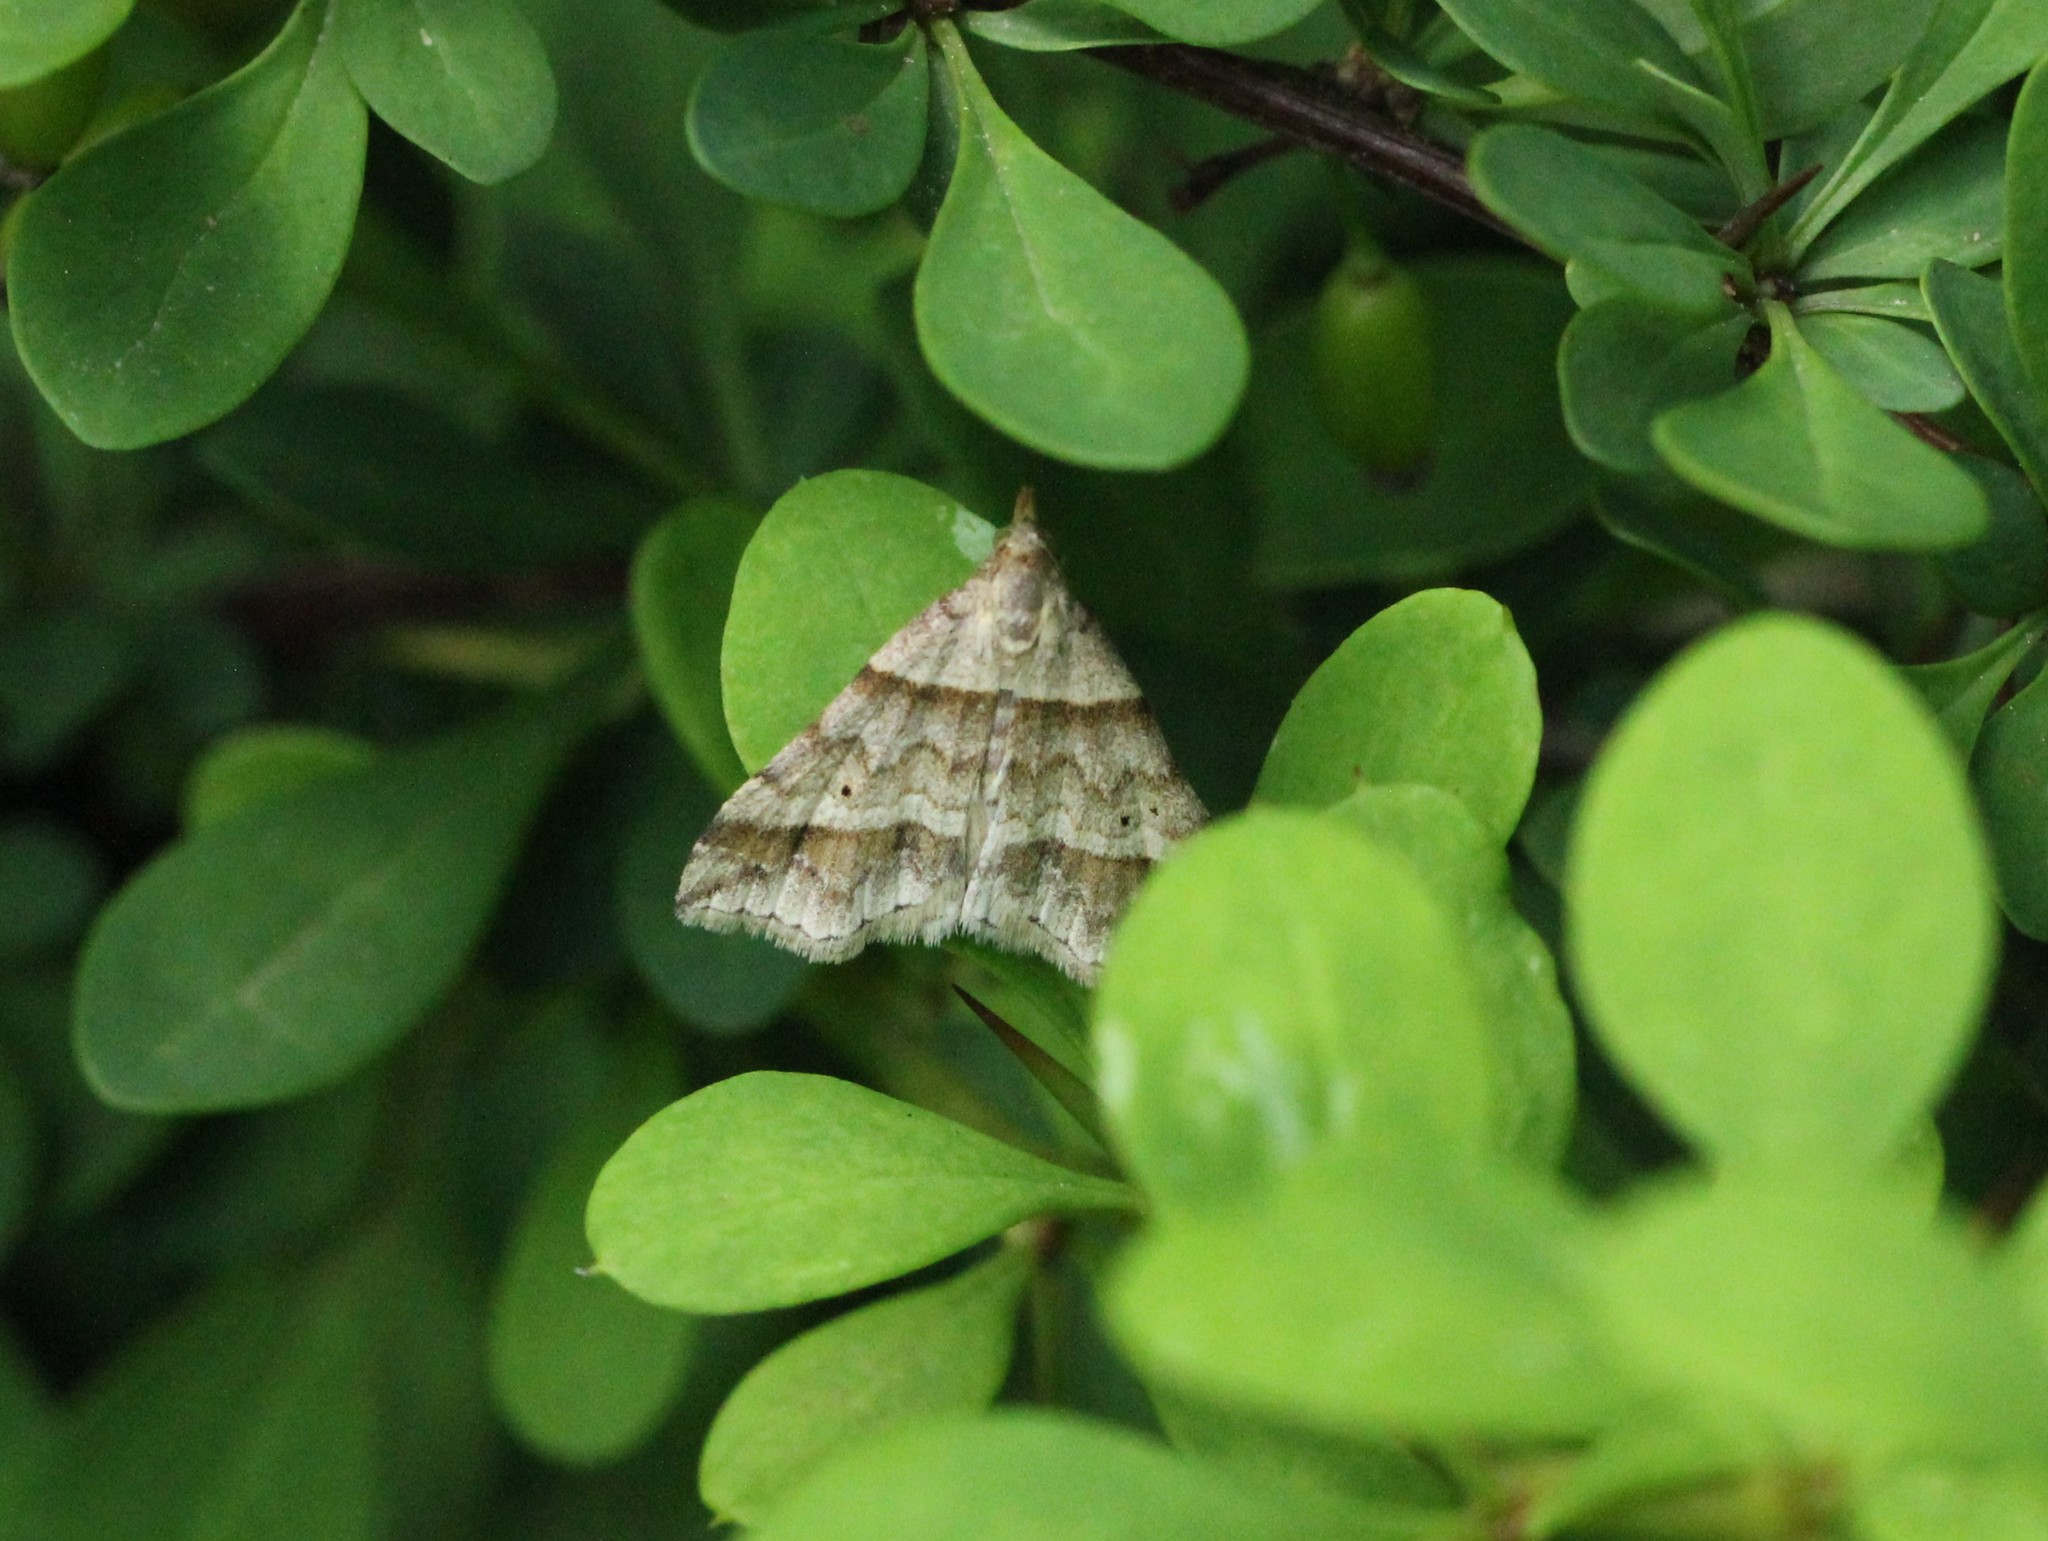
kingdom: Animalia
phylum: Arthropoda
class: Insecta
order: Lepidoptera
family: Erebidae
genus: Phaeolita
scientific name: Phaeolita pyramusalis
